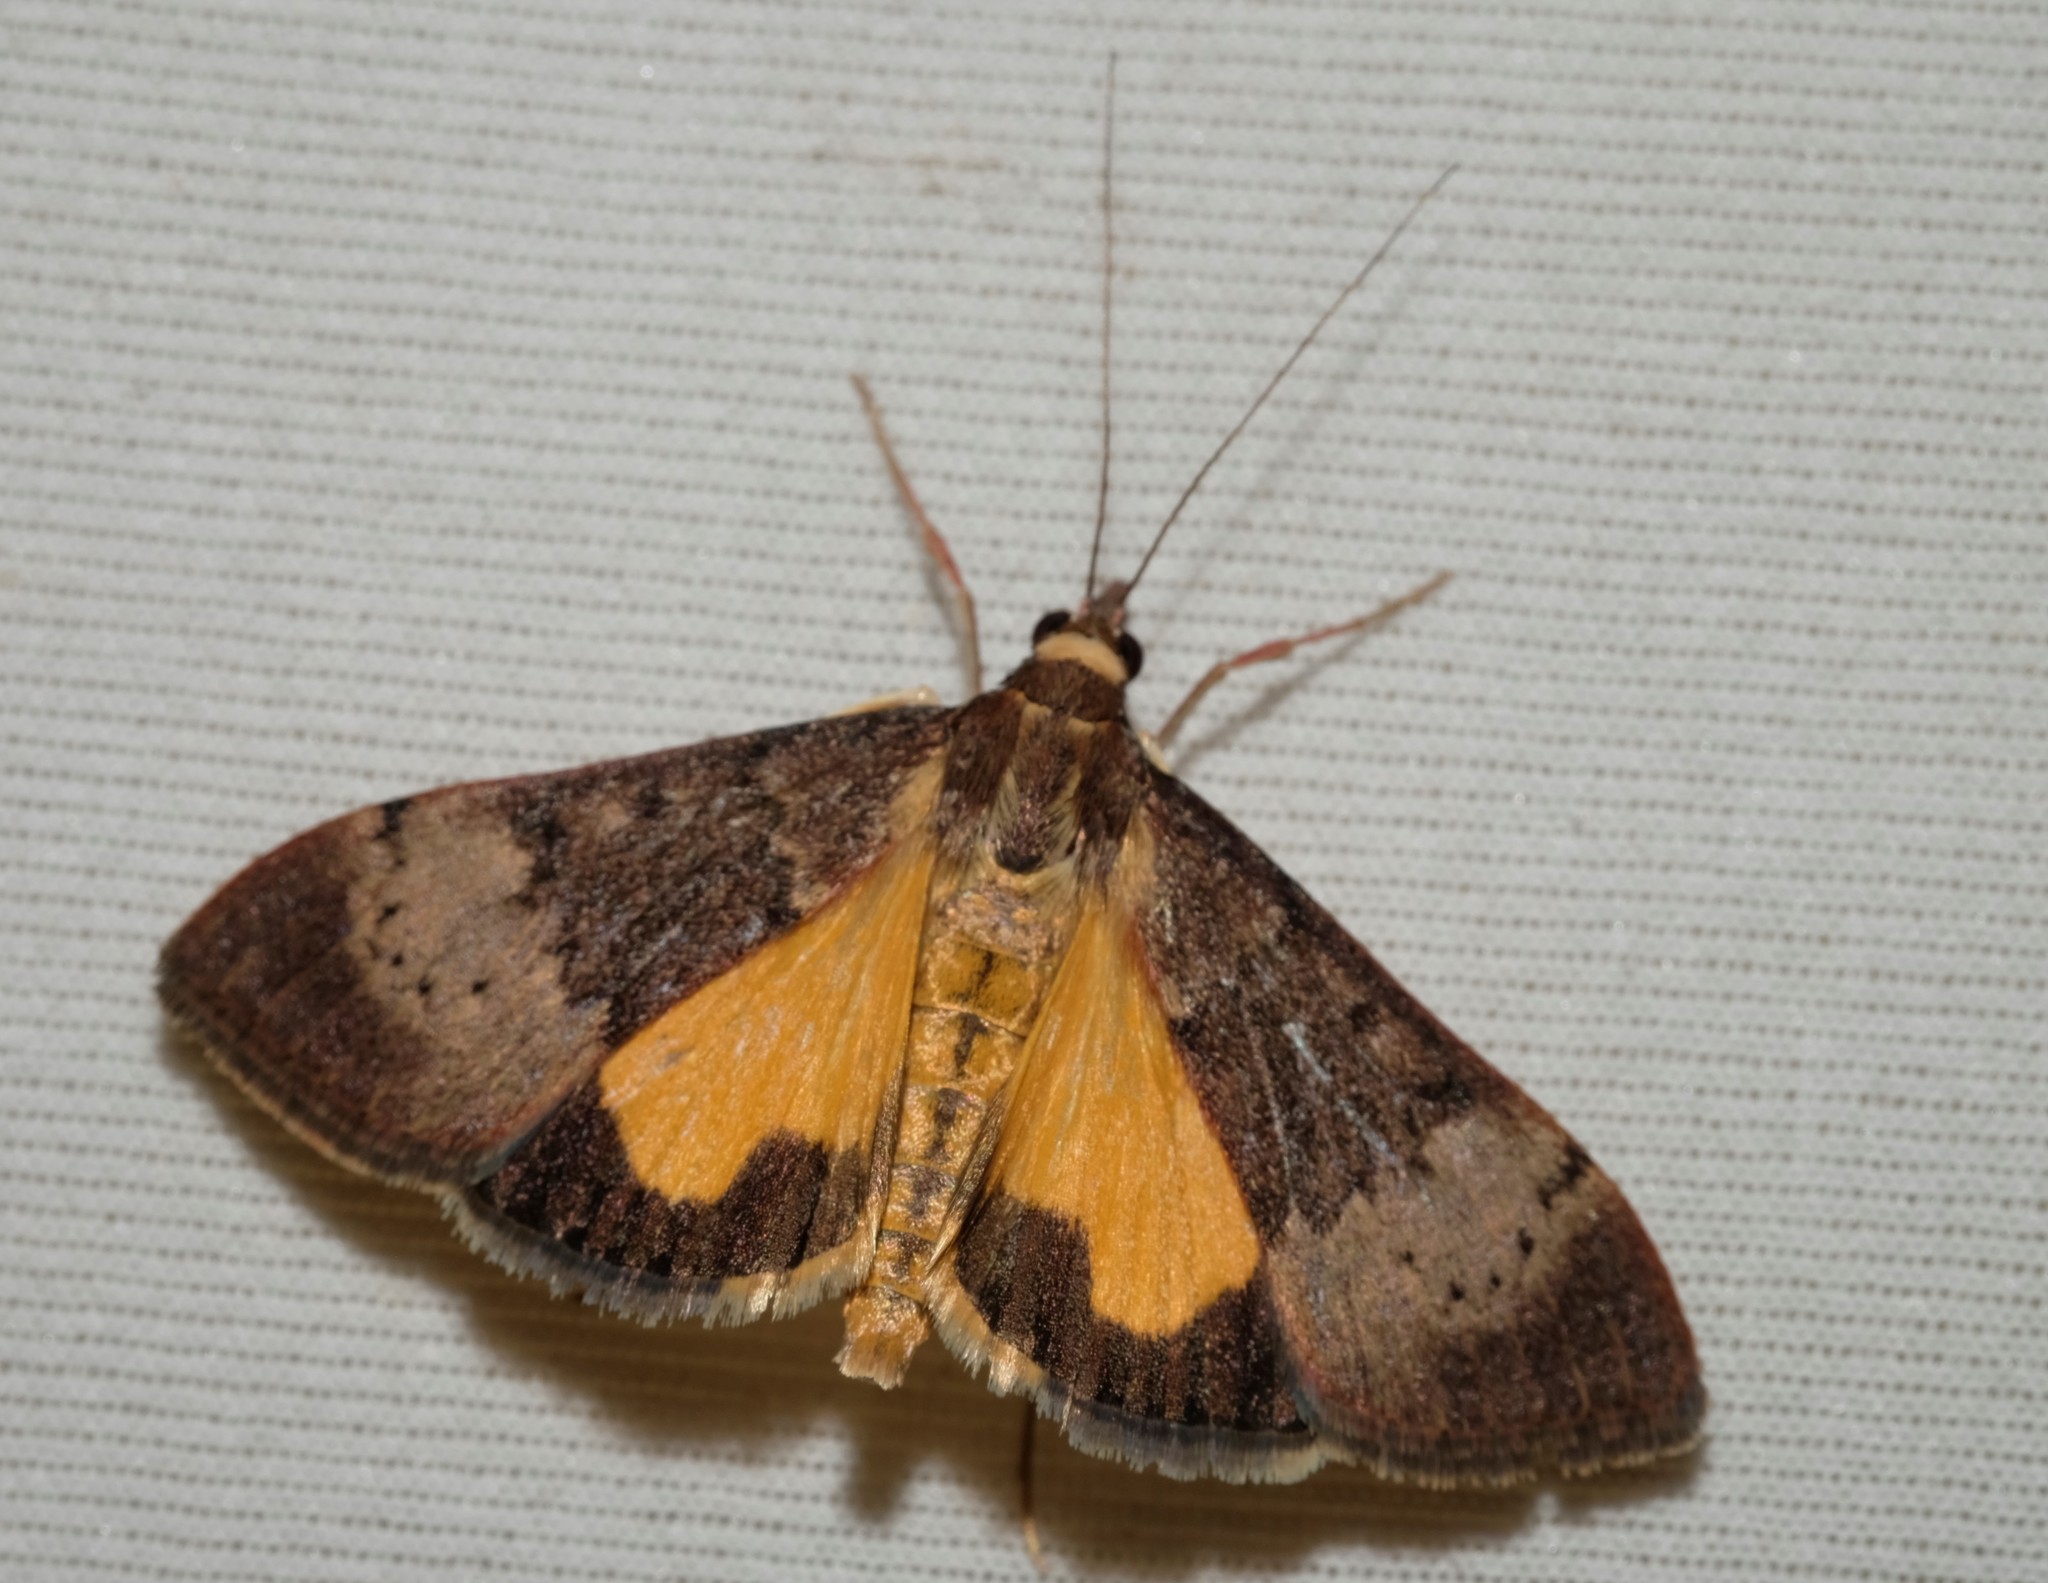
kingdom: Animalia
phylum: Arthropoda
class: Insecta
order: Lepidoptera
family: Crambidae
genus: Uresiphita
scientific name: Uresiphita ornithopteralis
